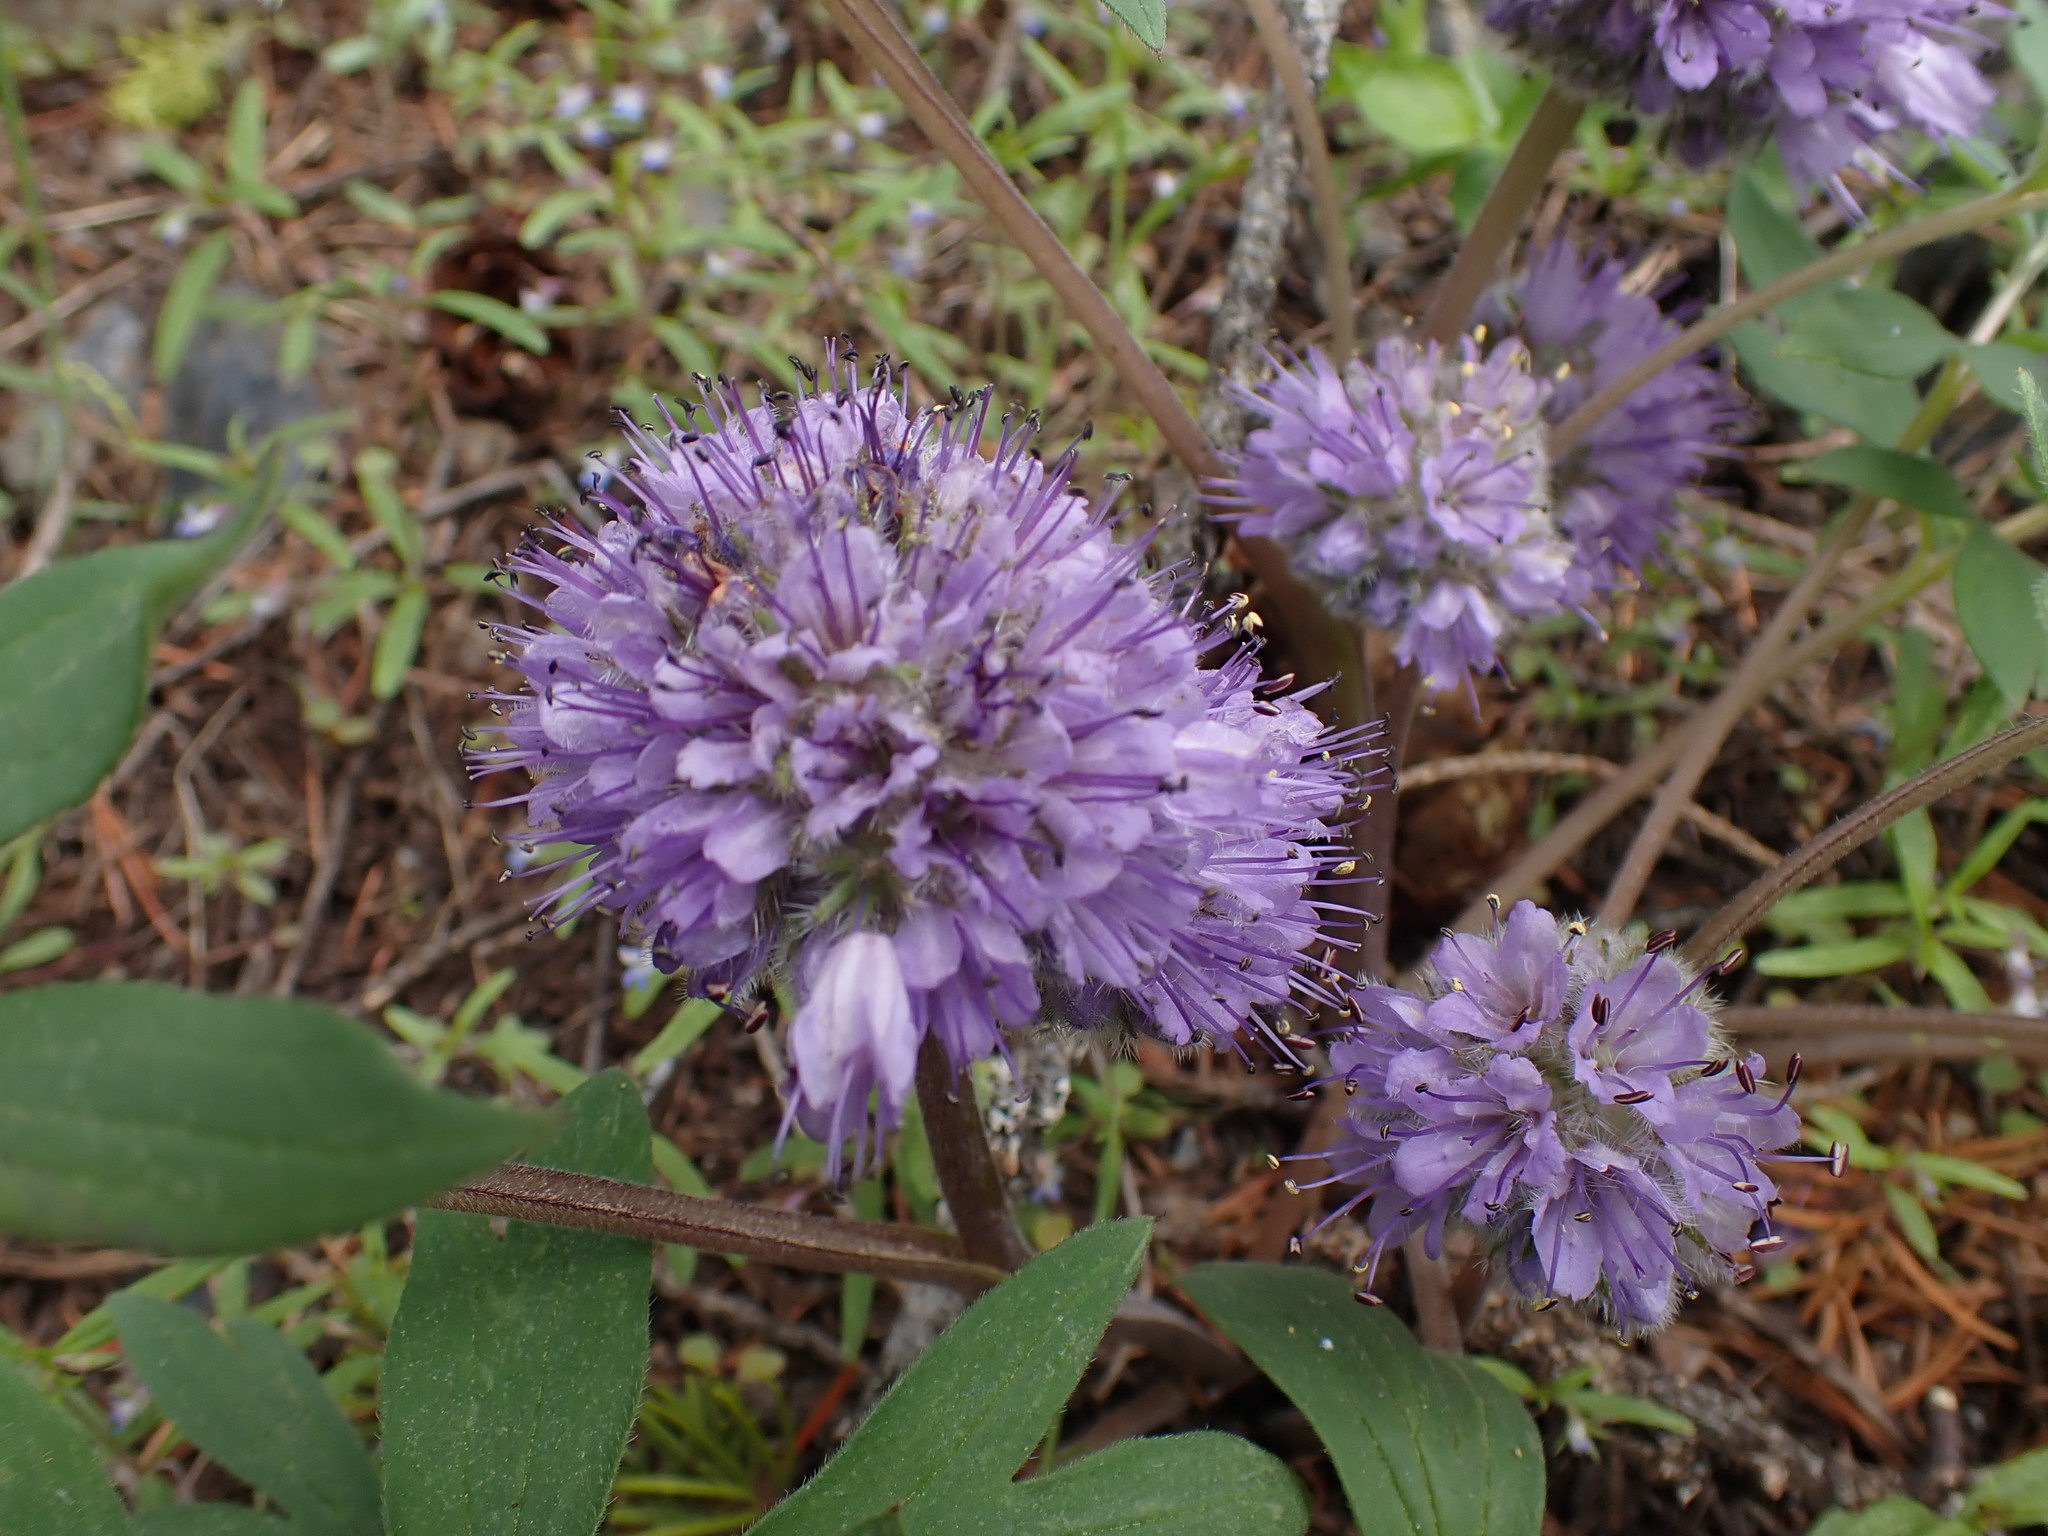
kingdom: Plantae
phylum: Tracheophyta
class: Magnoliopsida
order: Boraginales
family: Hydrophyllaceae
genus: Hydrophyllum
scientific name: Hydrophyllum capitatum
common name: Woollen-breeches
